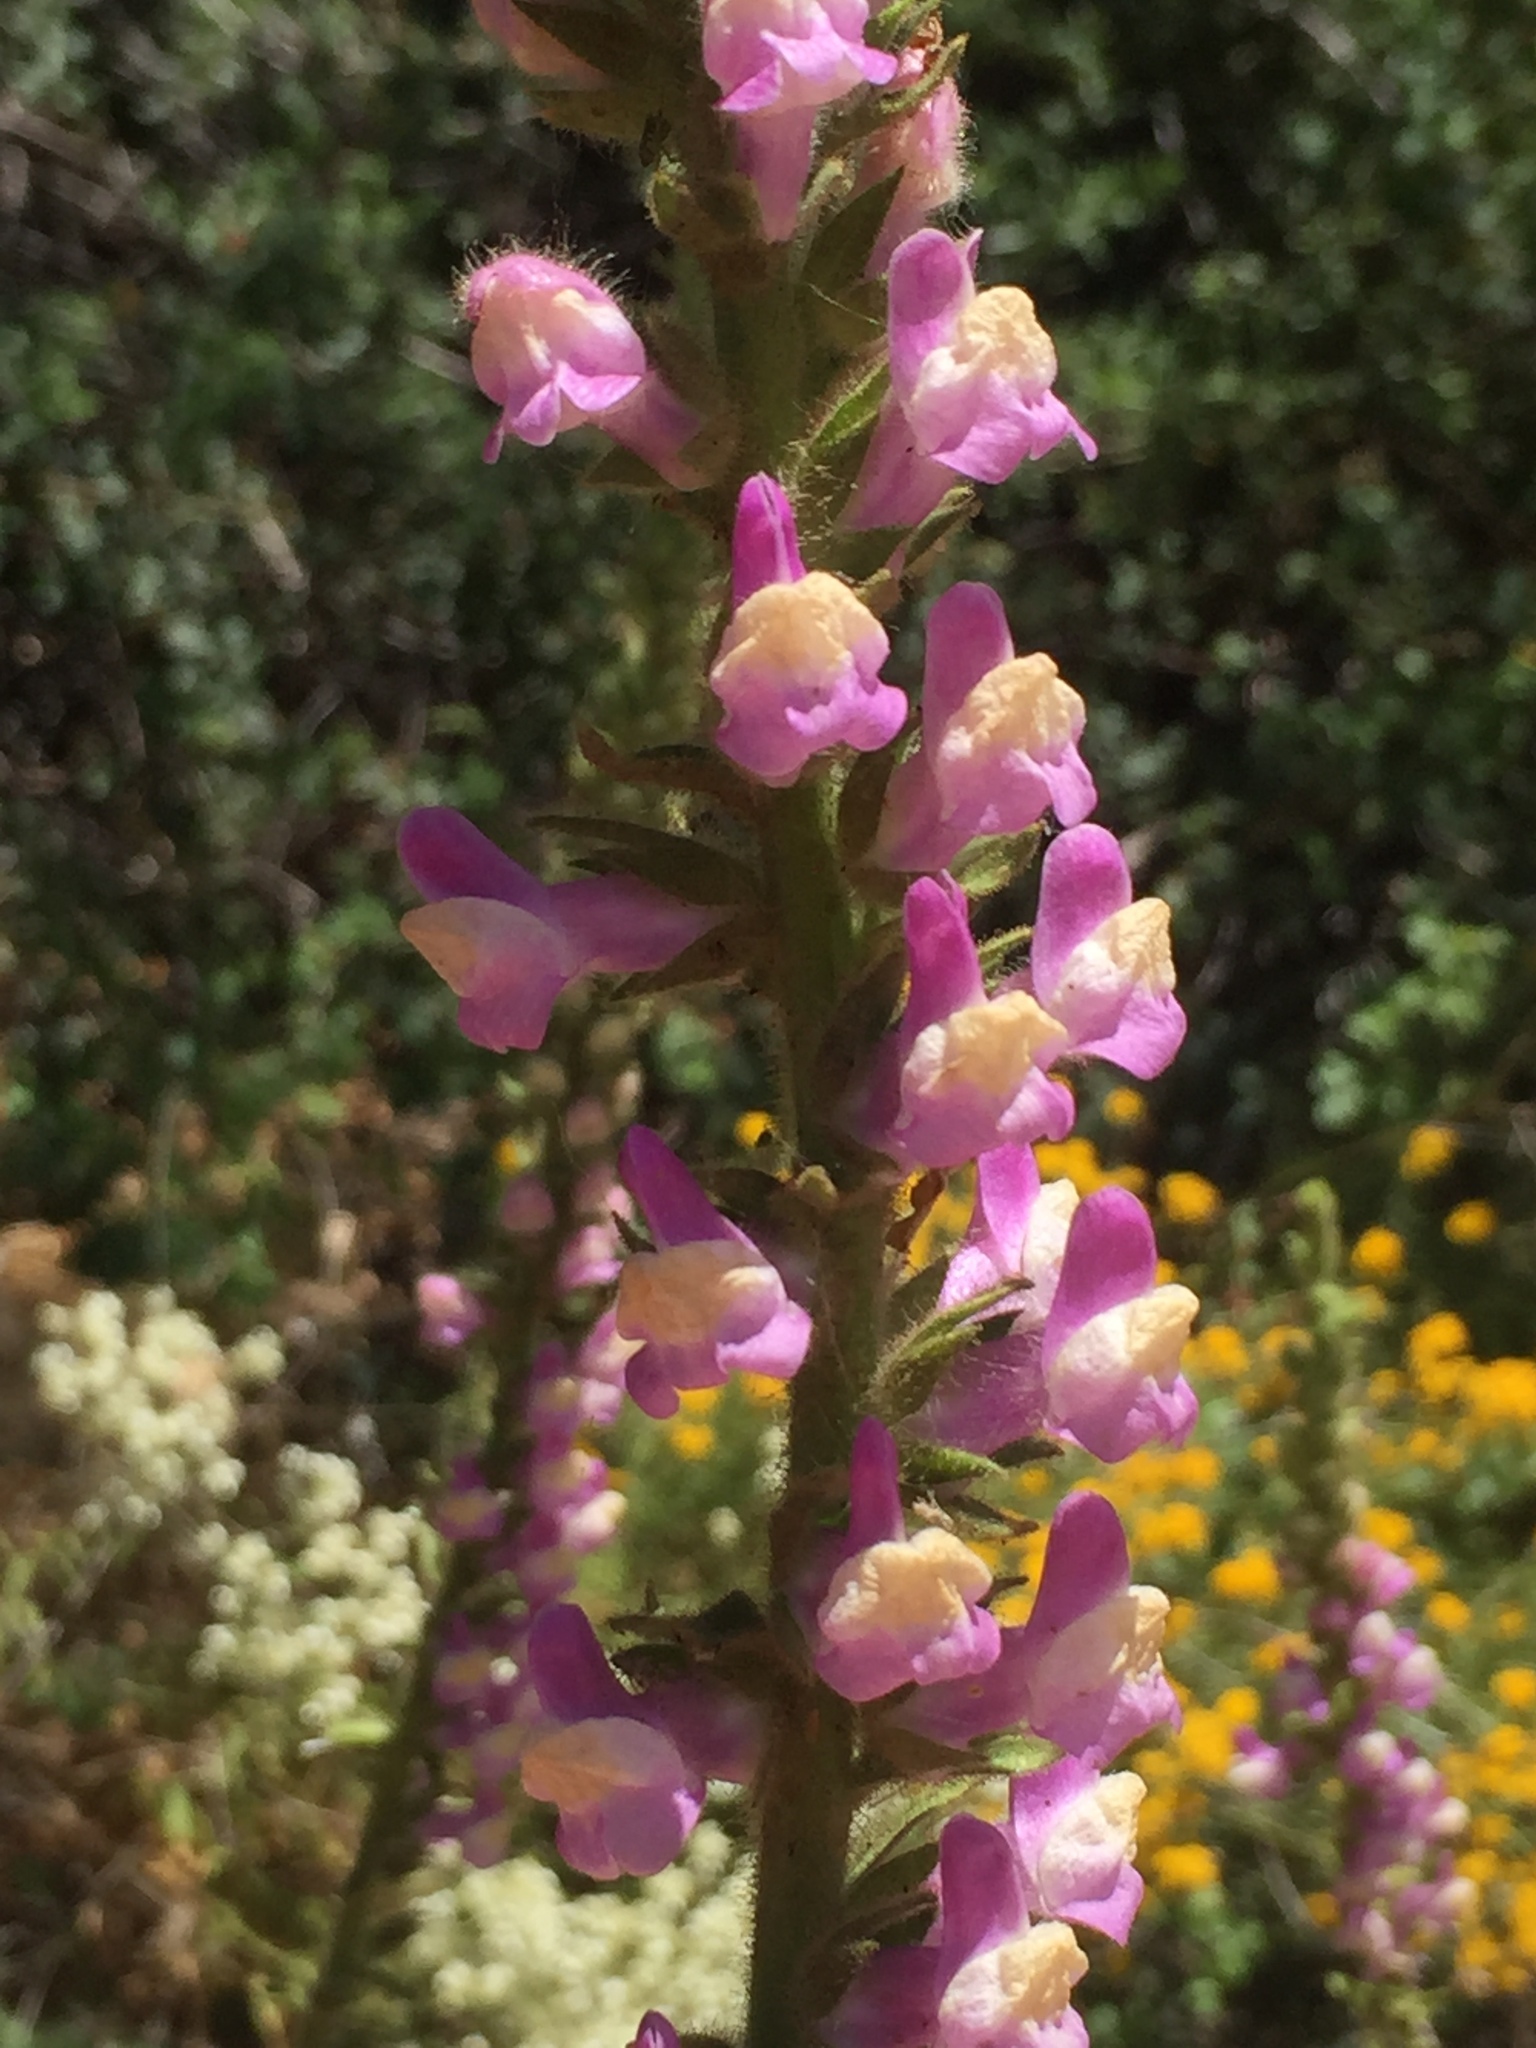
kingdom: Plantae
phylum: Tracheophyta
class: Magnoliopsida
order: Lamiales
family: Plantaginaceae
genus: Sairocarpus
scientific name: Sairocarpus multiflorus
